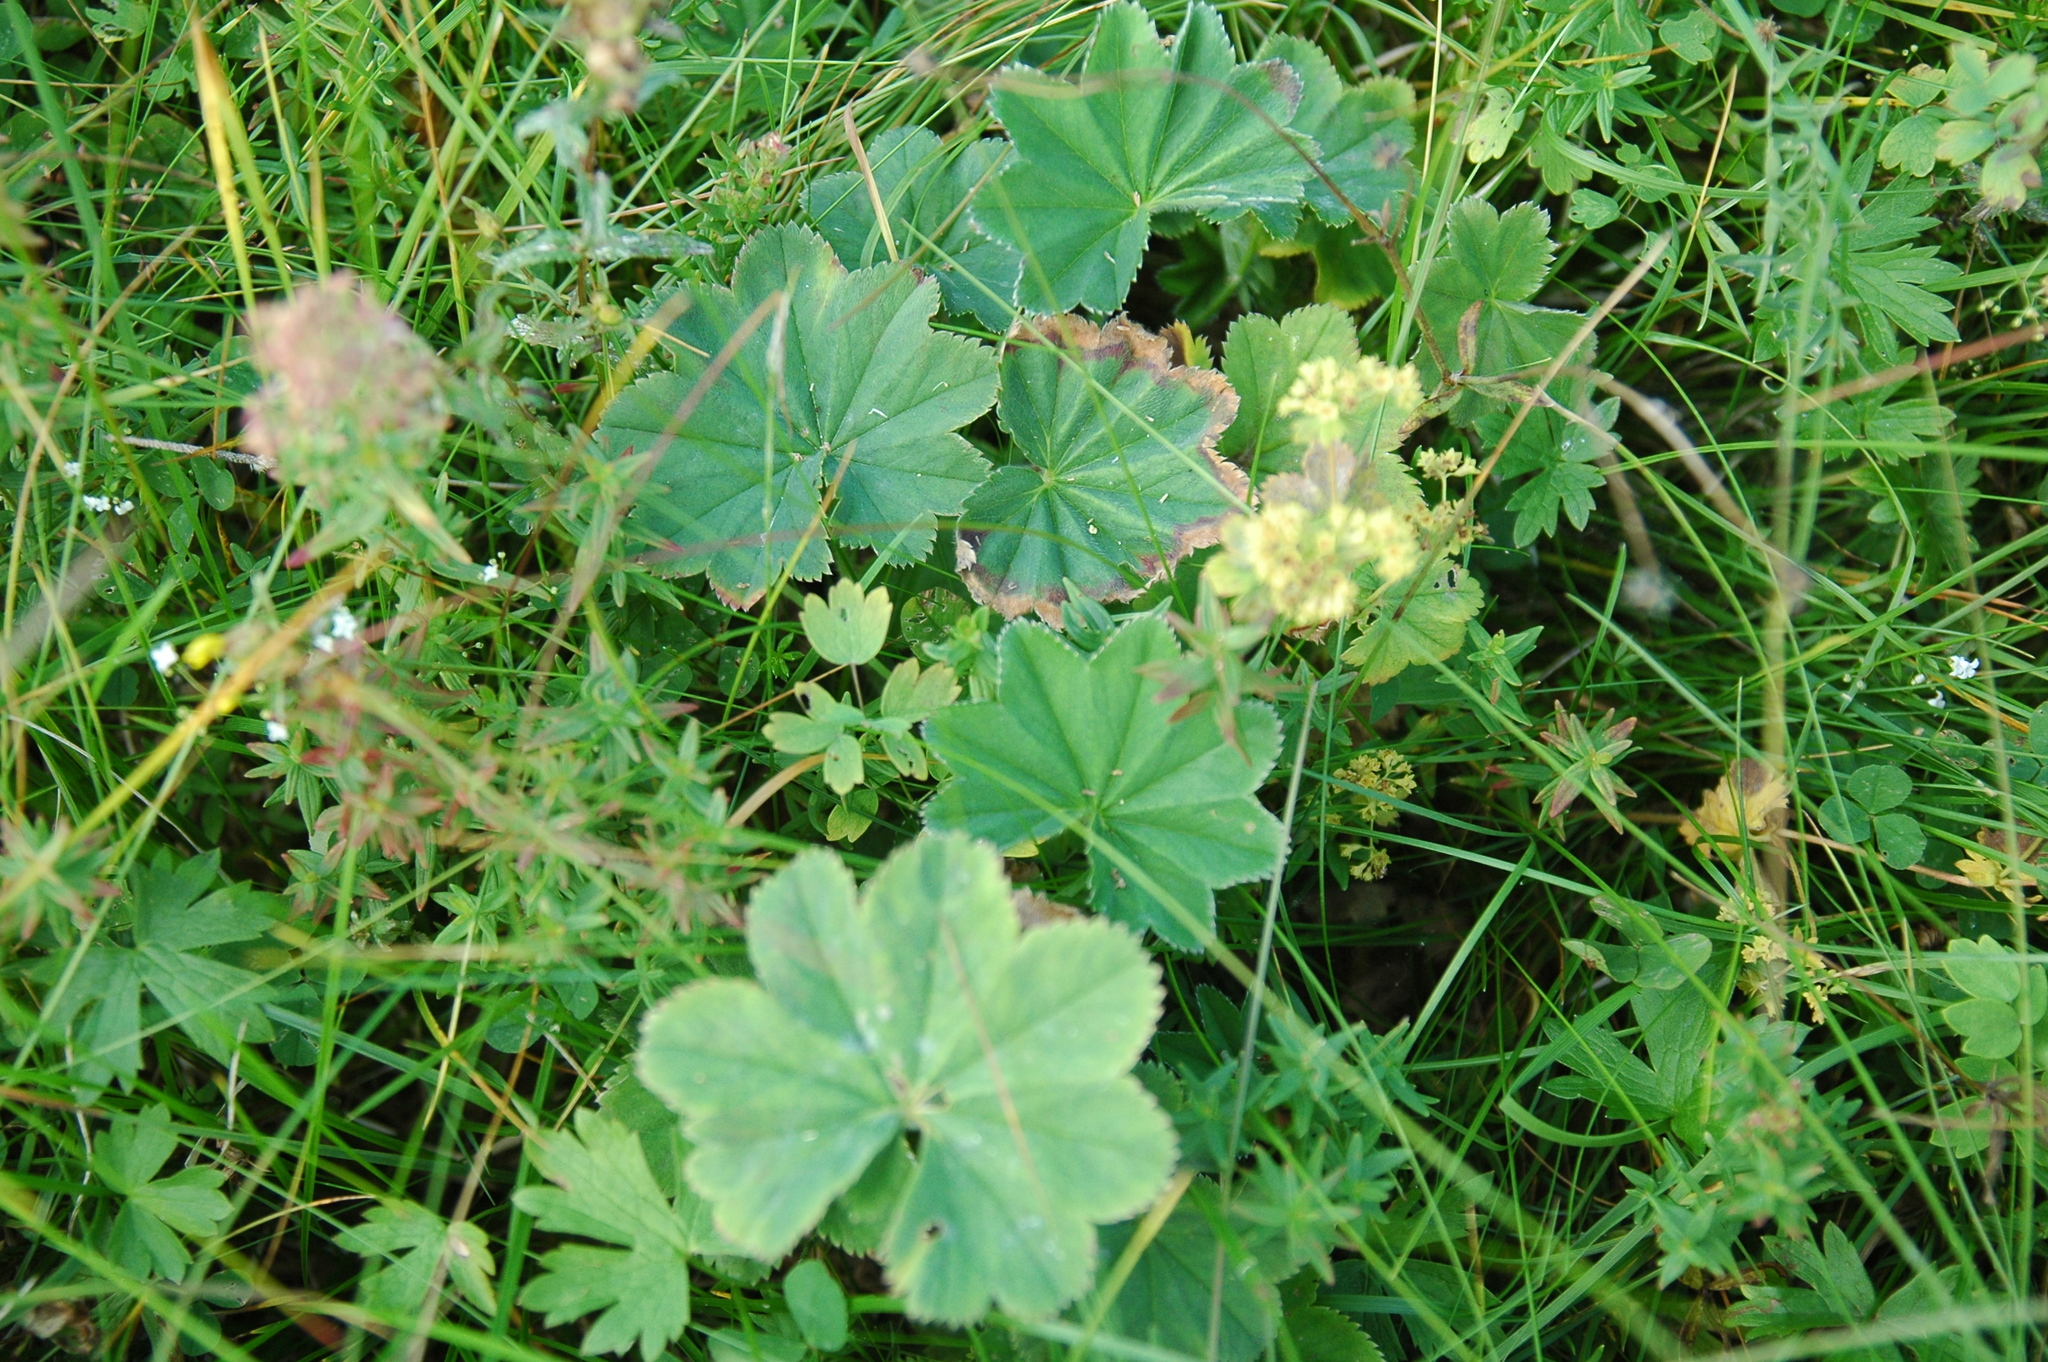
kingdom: Plantae
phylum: Tracheophyta
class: Magnoliopsida
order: Rosales
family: Rosaceae
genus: Alchemilla
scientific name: Alchemilla vulgaris
